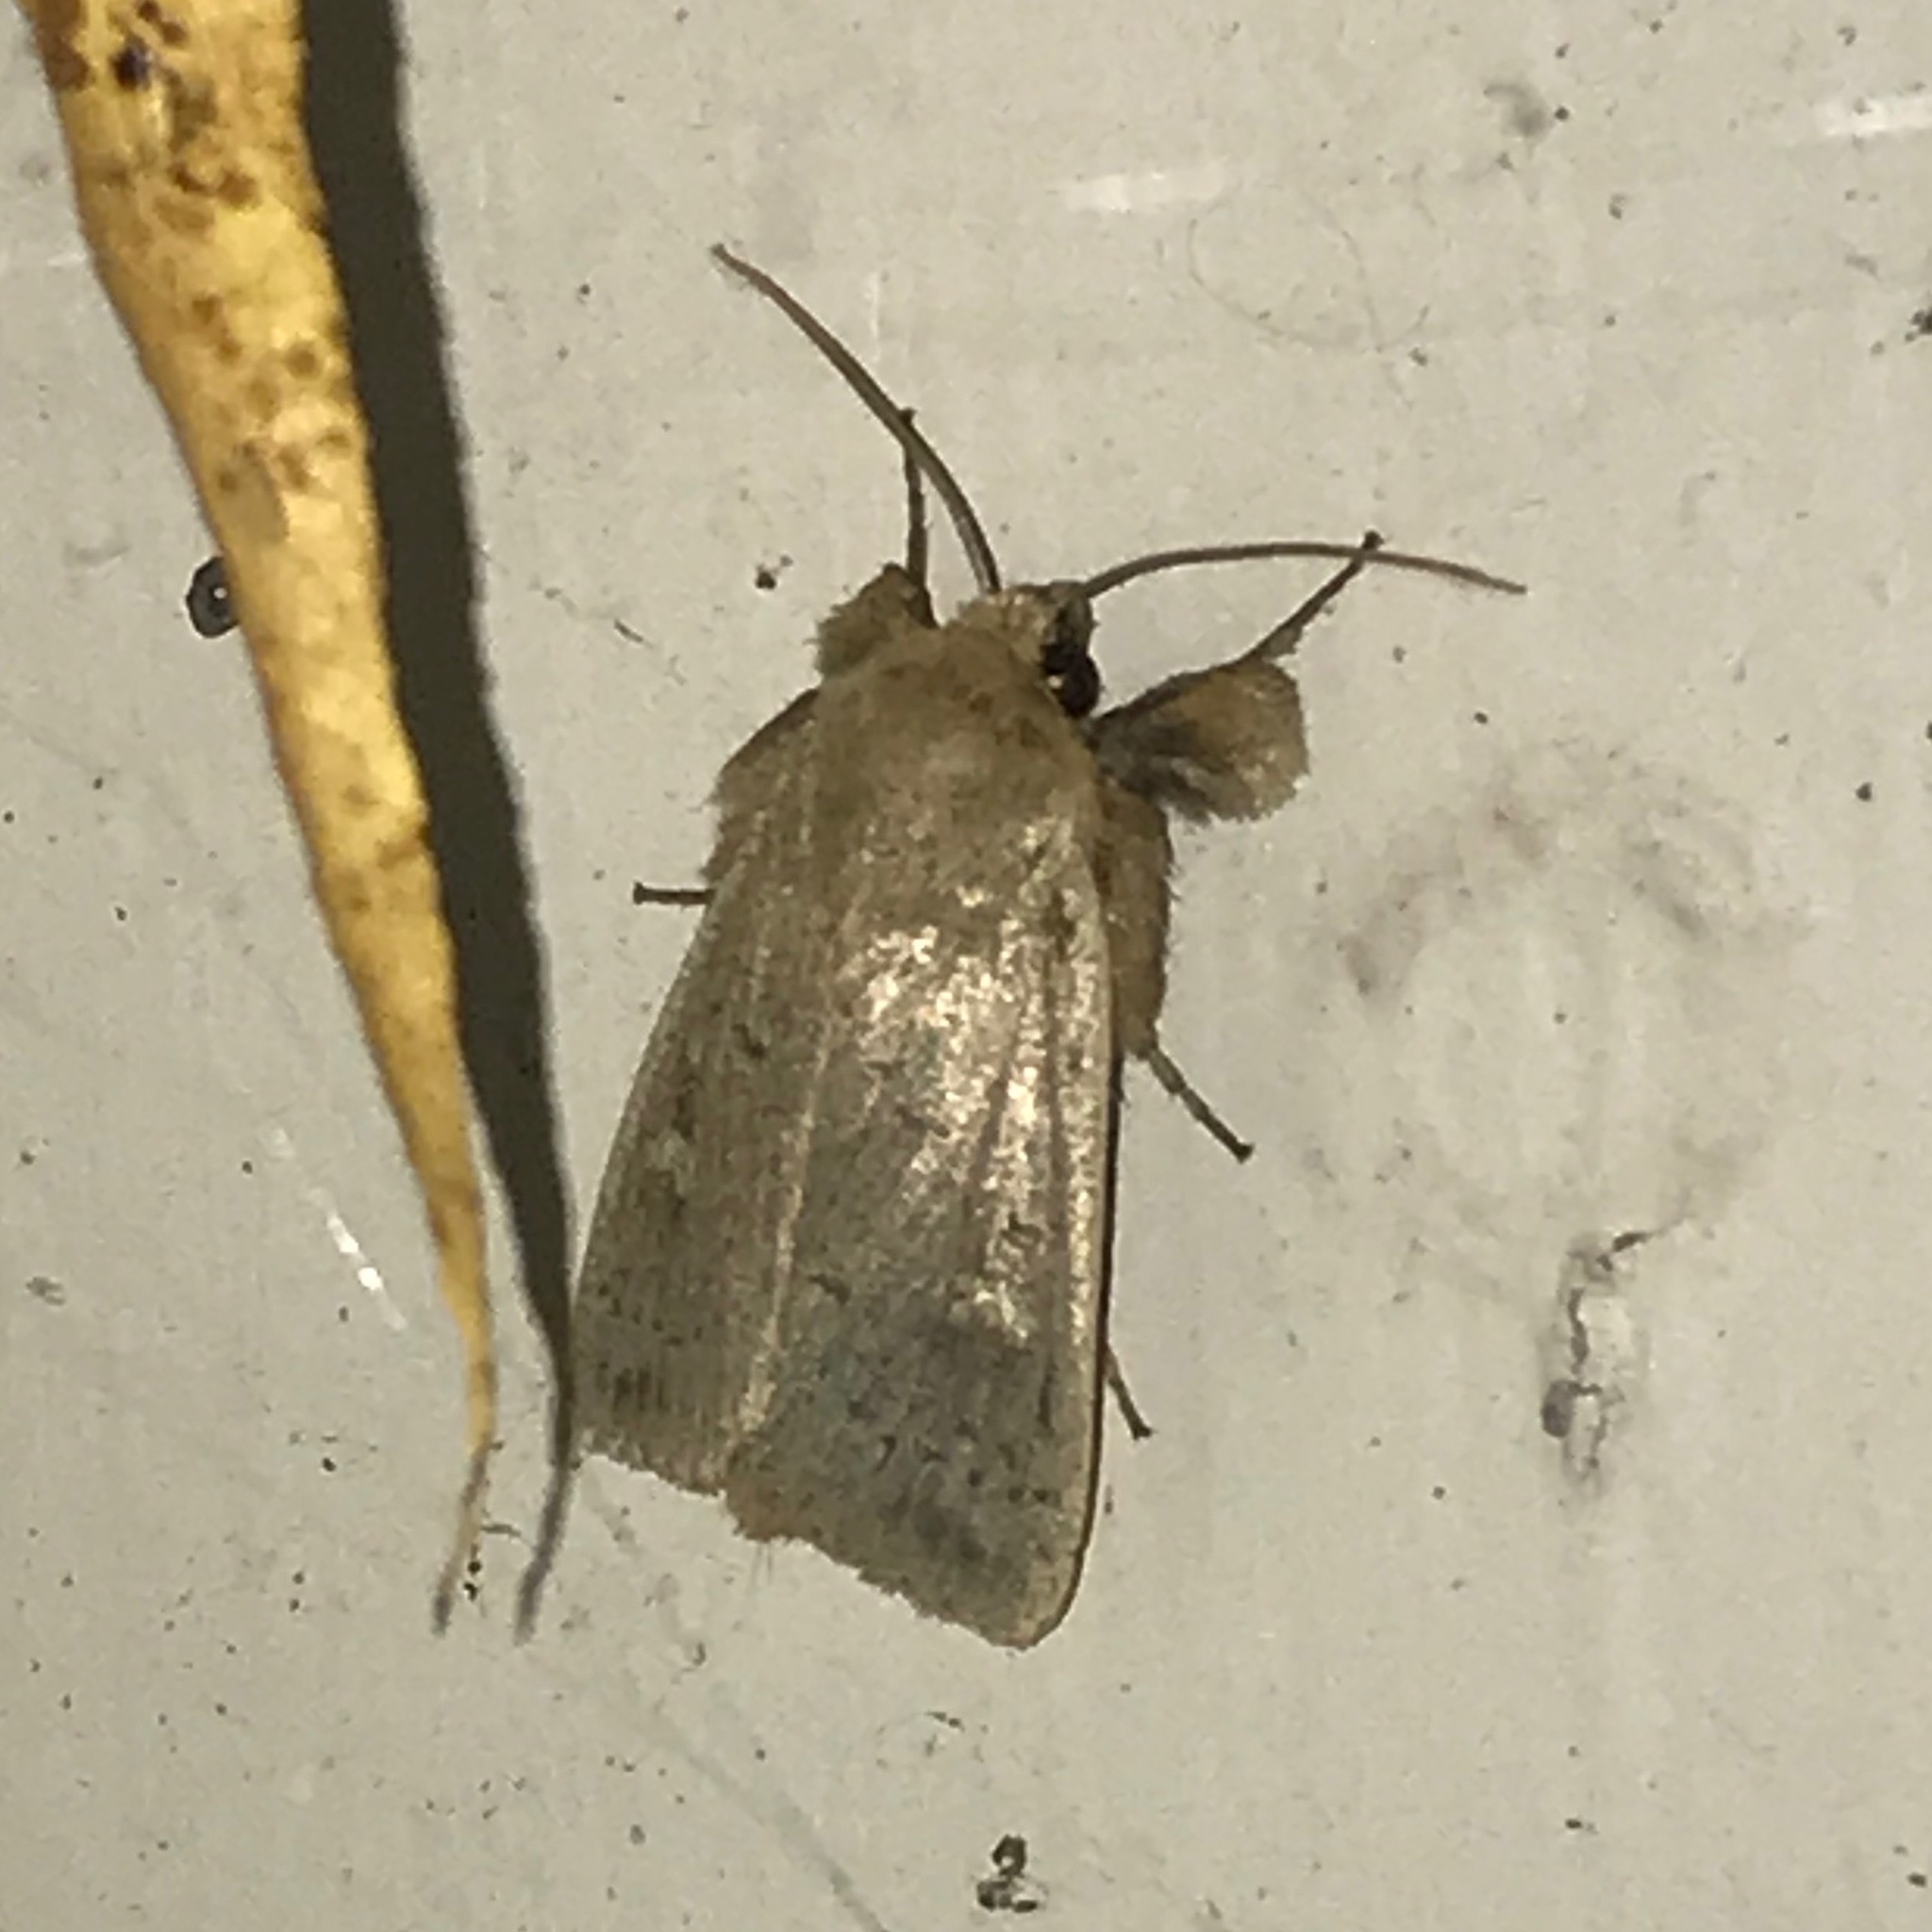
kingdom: Animalia
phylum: Arthropoda
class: Insecta
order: Lepidoptera
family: Noctuidae
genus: Leucania
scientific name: Leucania ursula
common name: Ursula wainscot
